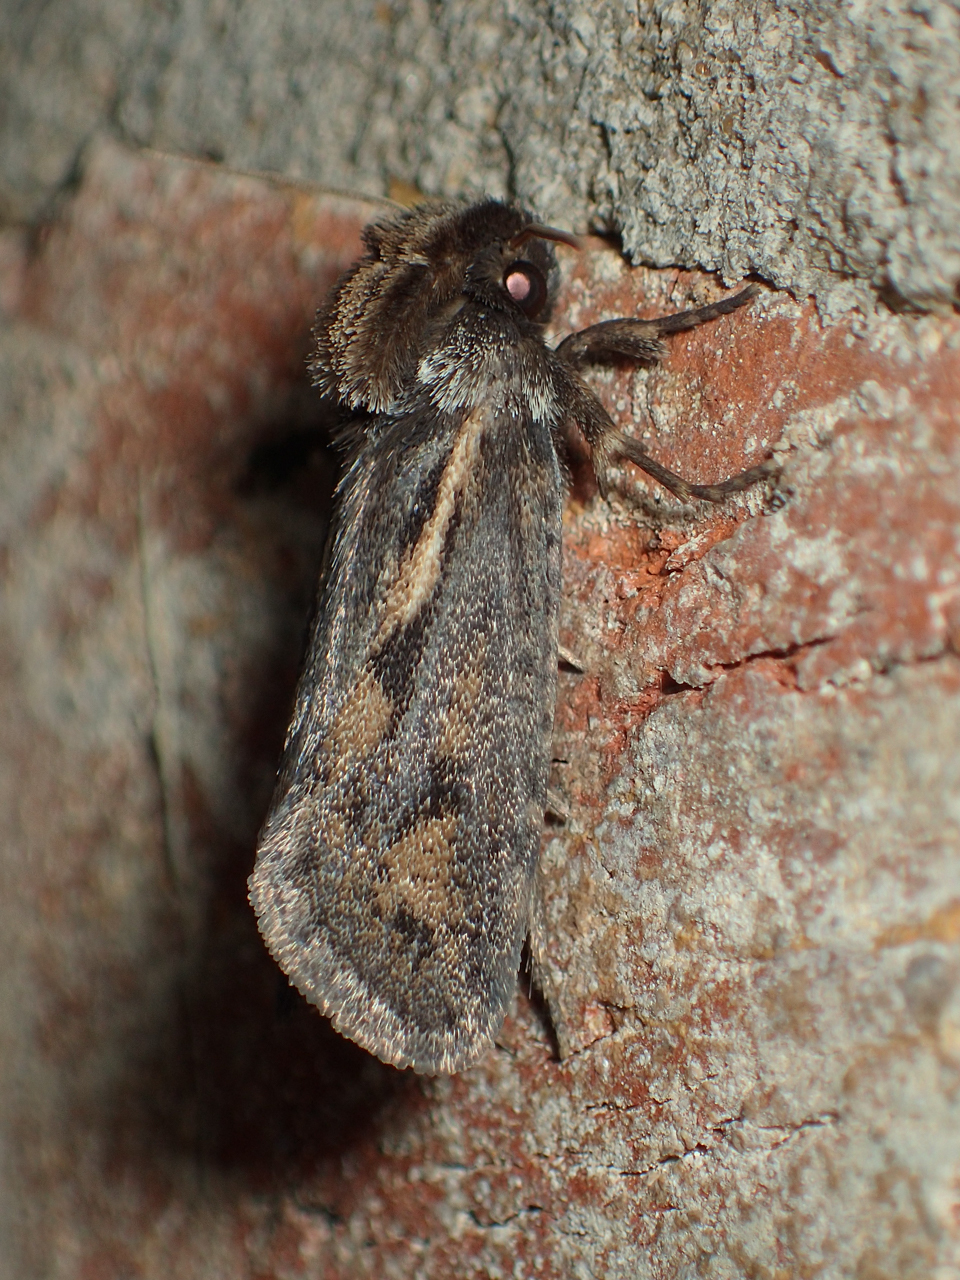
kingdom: Animalia
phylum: Arthropoda
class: Insecta
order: Lepidoptera
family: Tineidae
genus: Acrolophus
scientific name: Acrolophus popeanella
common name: Clemens' grass tubeworm moth
